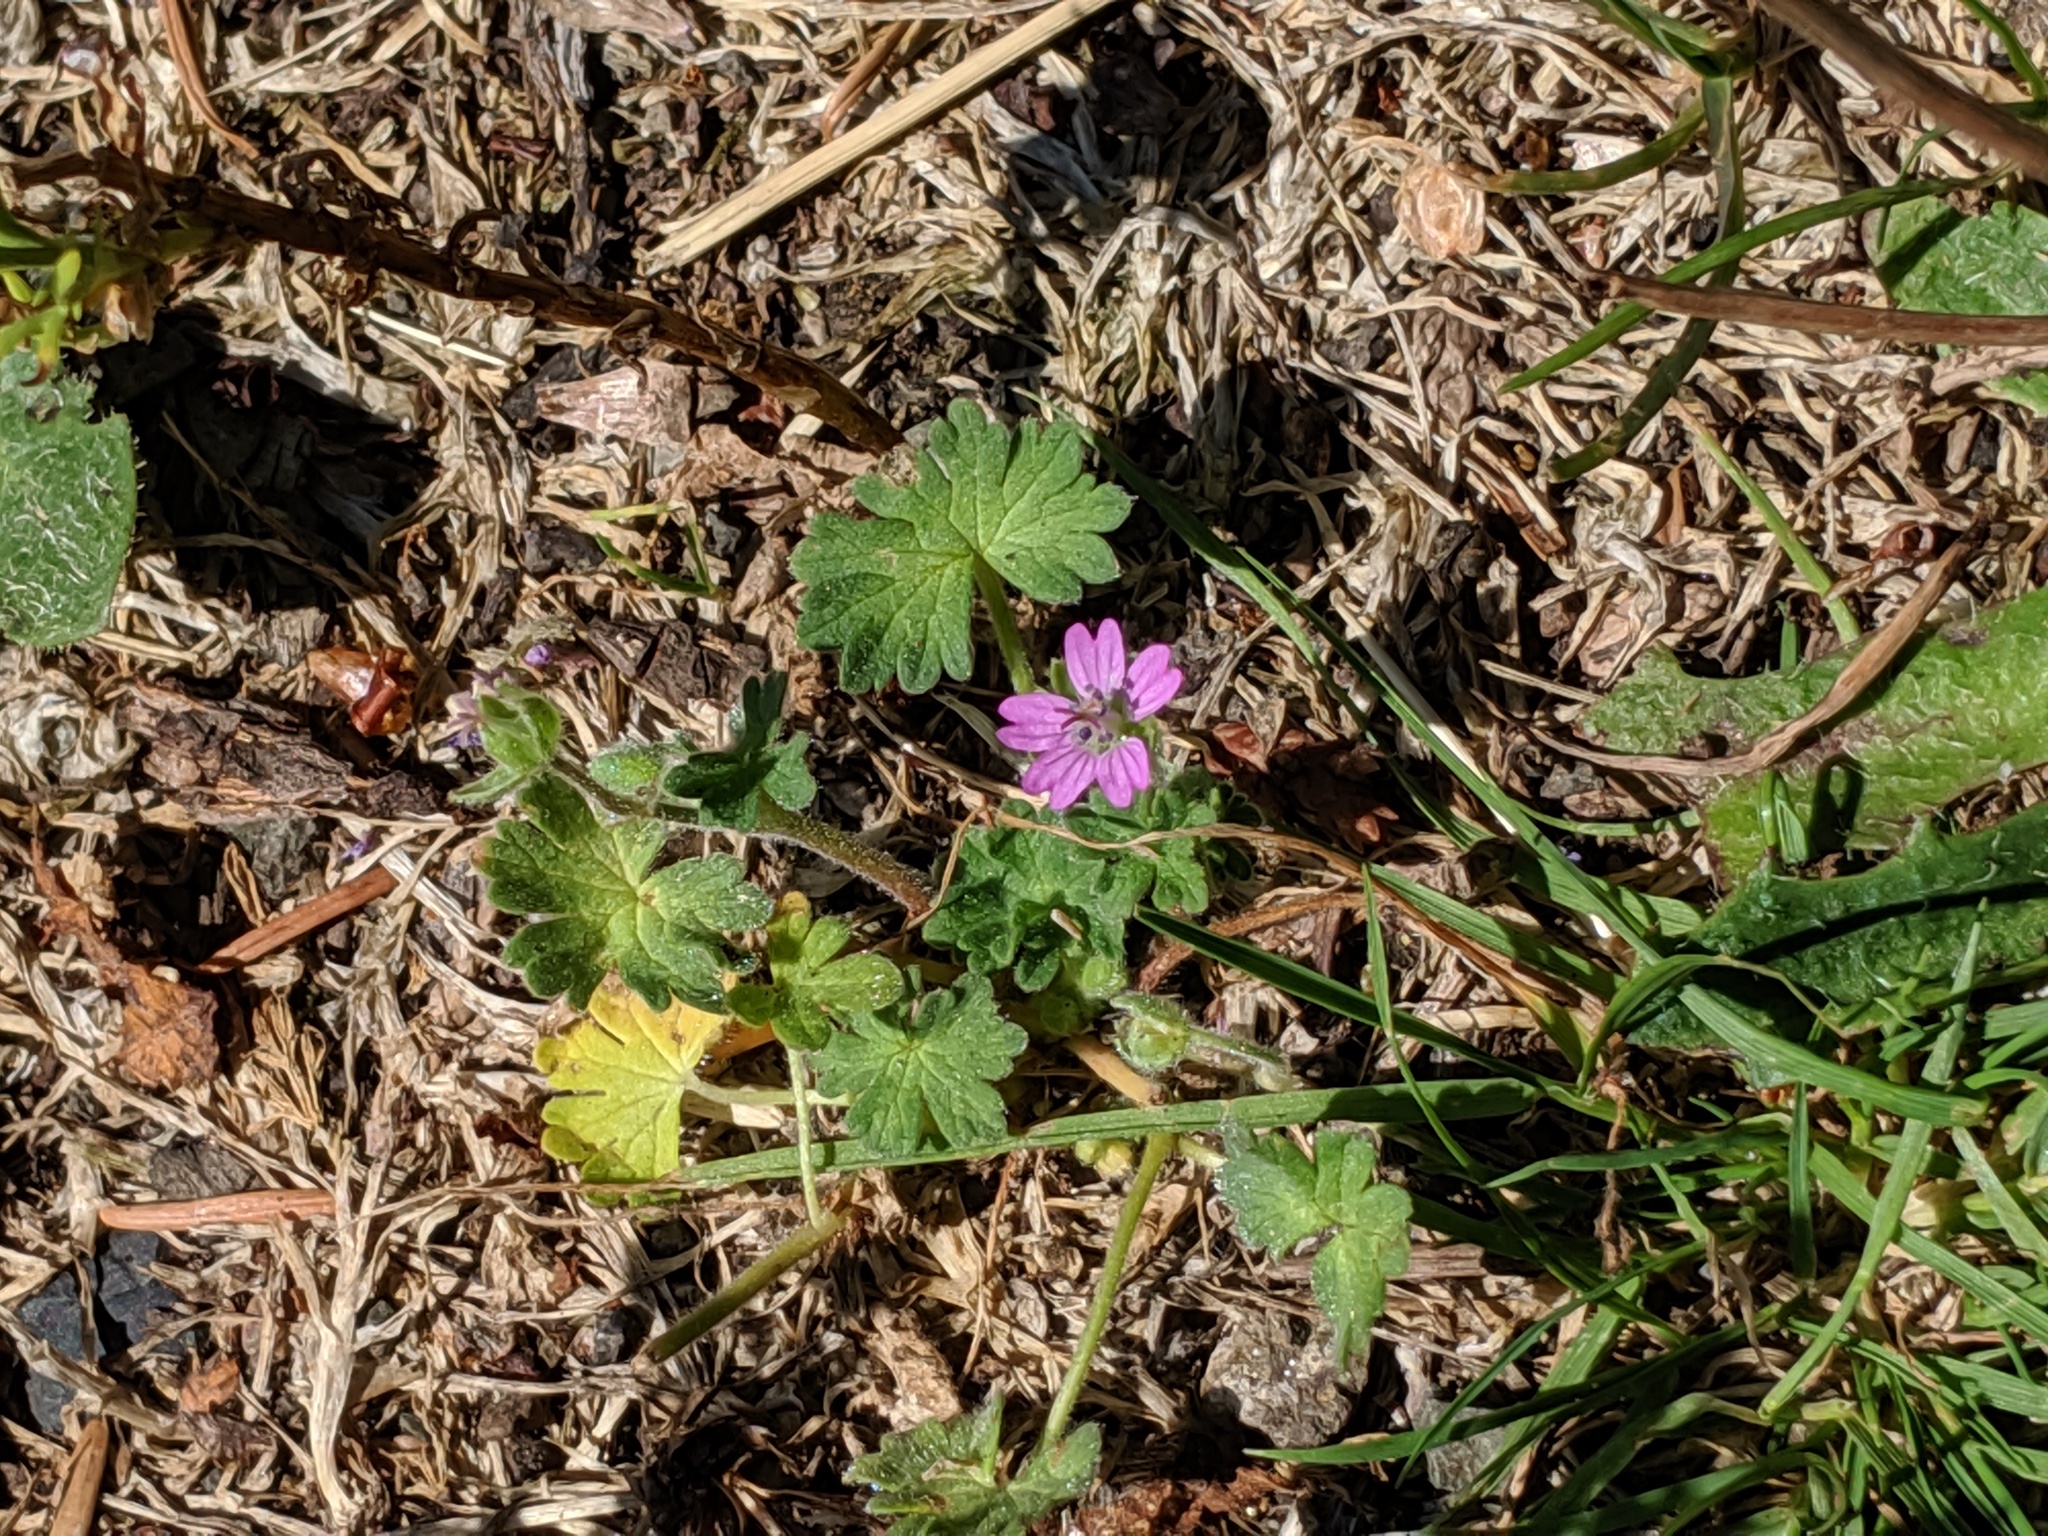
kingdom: Plantae
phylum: Tracheophyta
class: Magnoliopsida
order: Geraniales
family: Geraniaceae
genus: Geranium
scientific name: Geranium molle
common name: Dove's-foot crane's-bill
